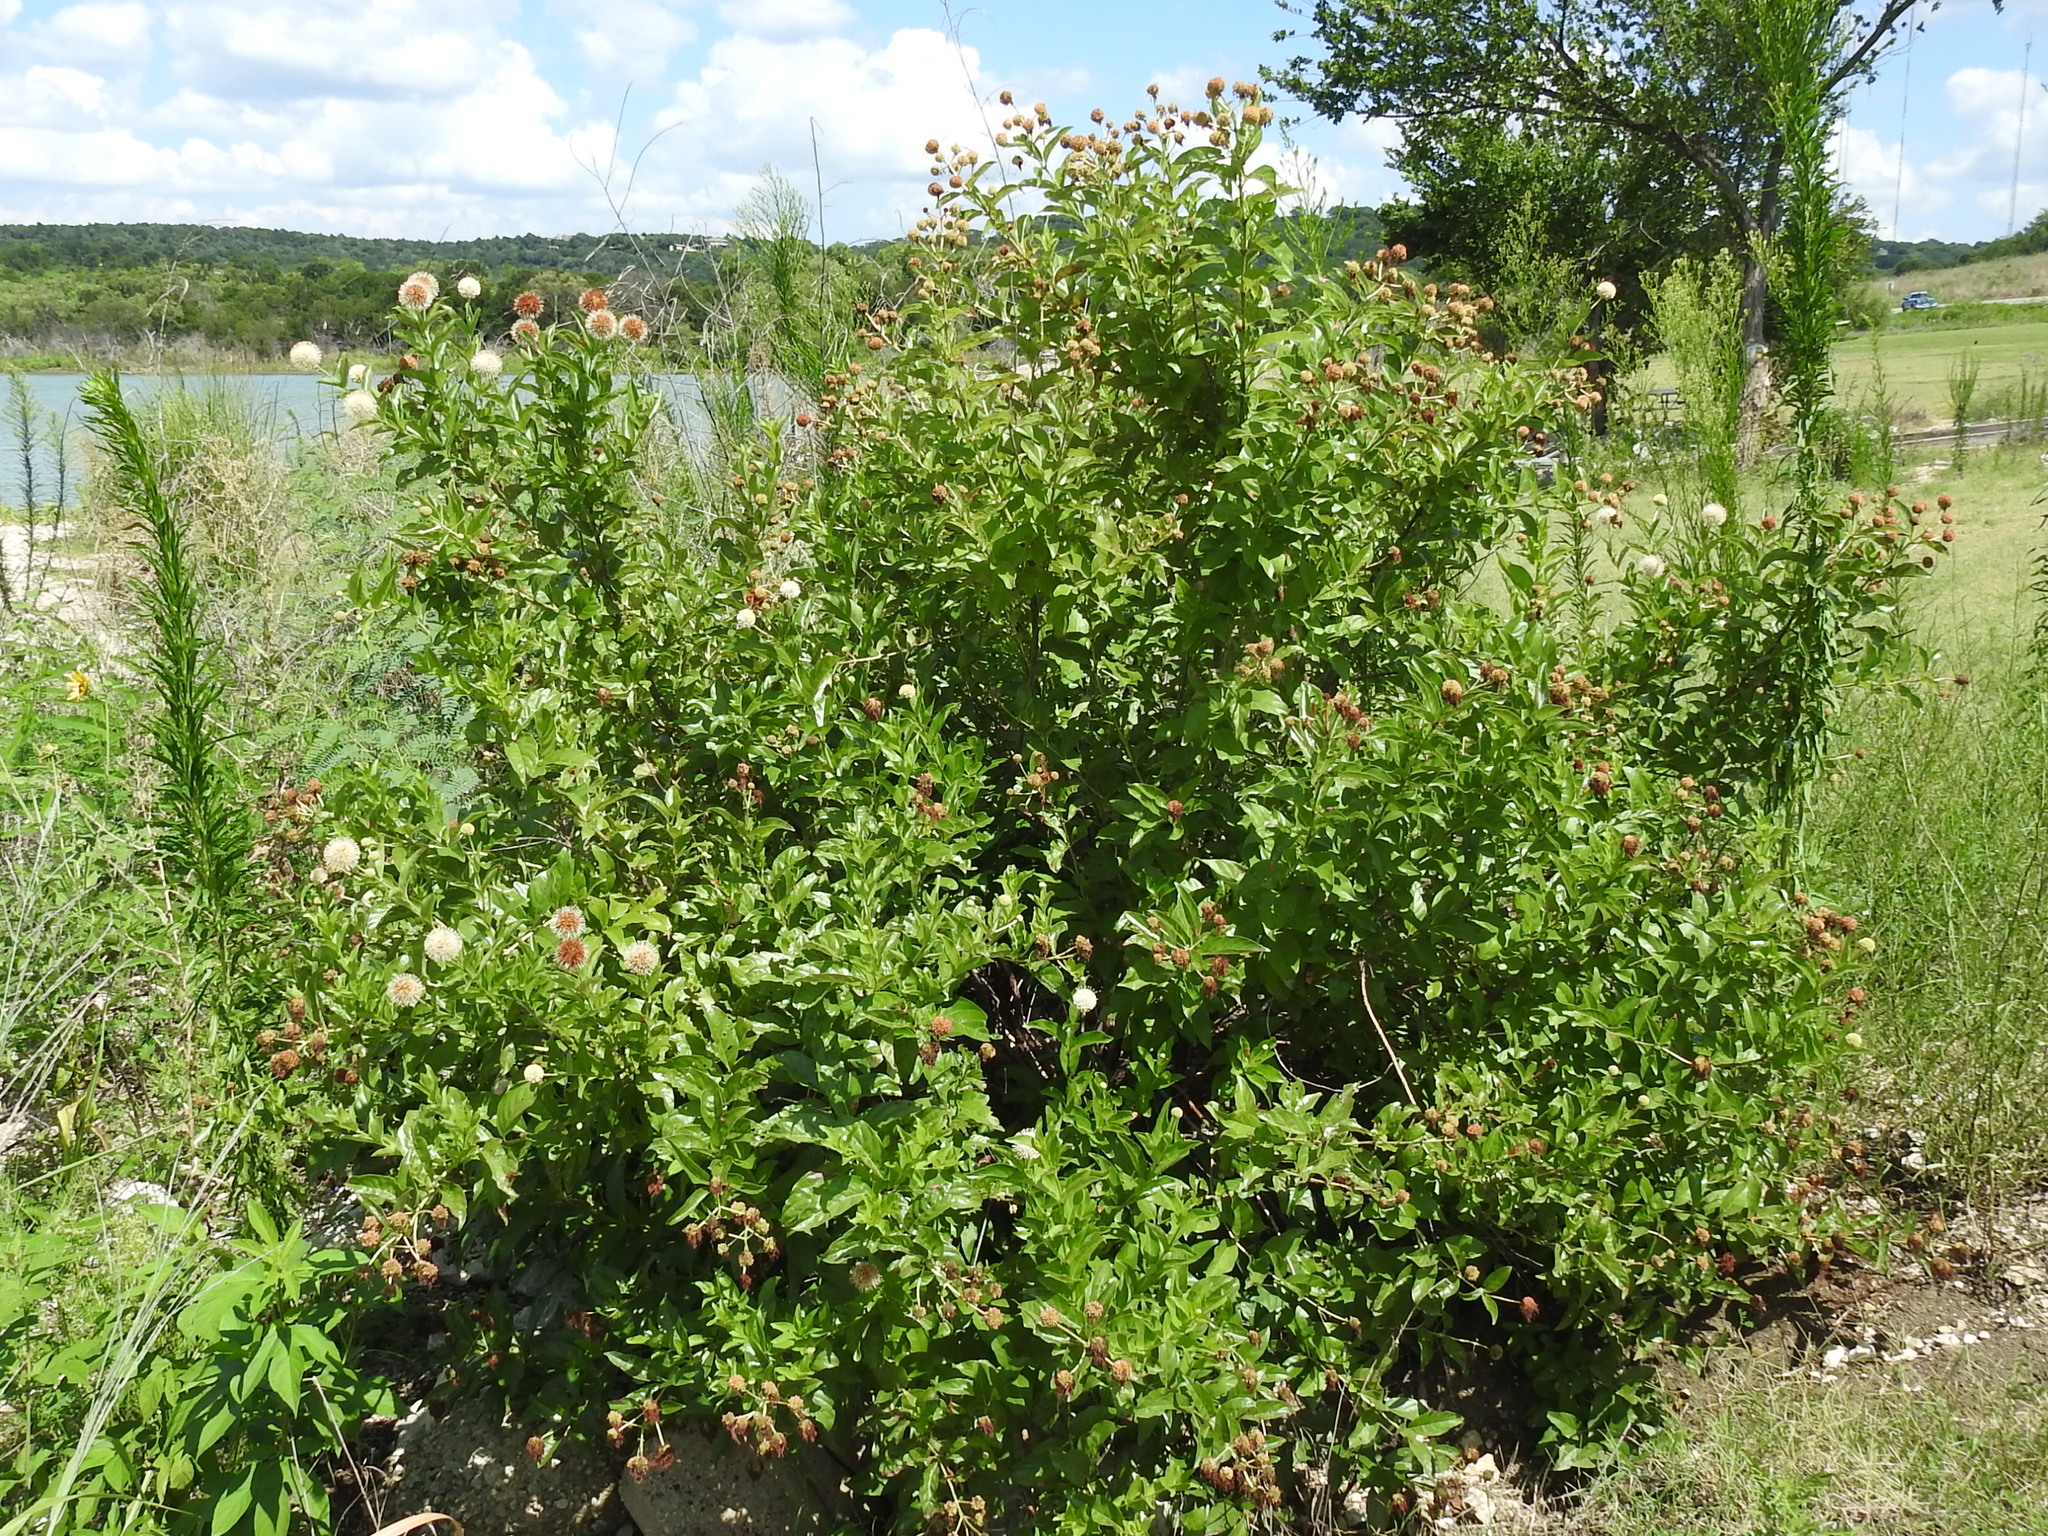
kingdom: Plantae
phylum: Tracheophyta
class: Magnoliopsida
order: Gentianales
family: Rubiaceae
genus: Cephalanthus
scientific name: Cephalanthus occidentalis
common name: Button-willow
